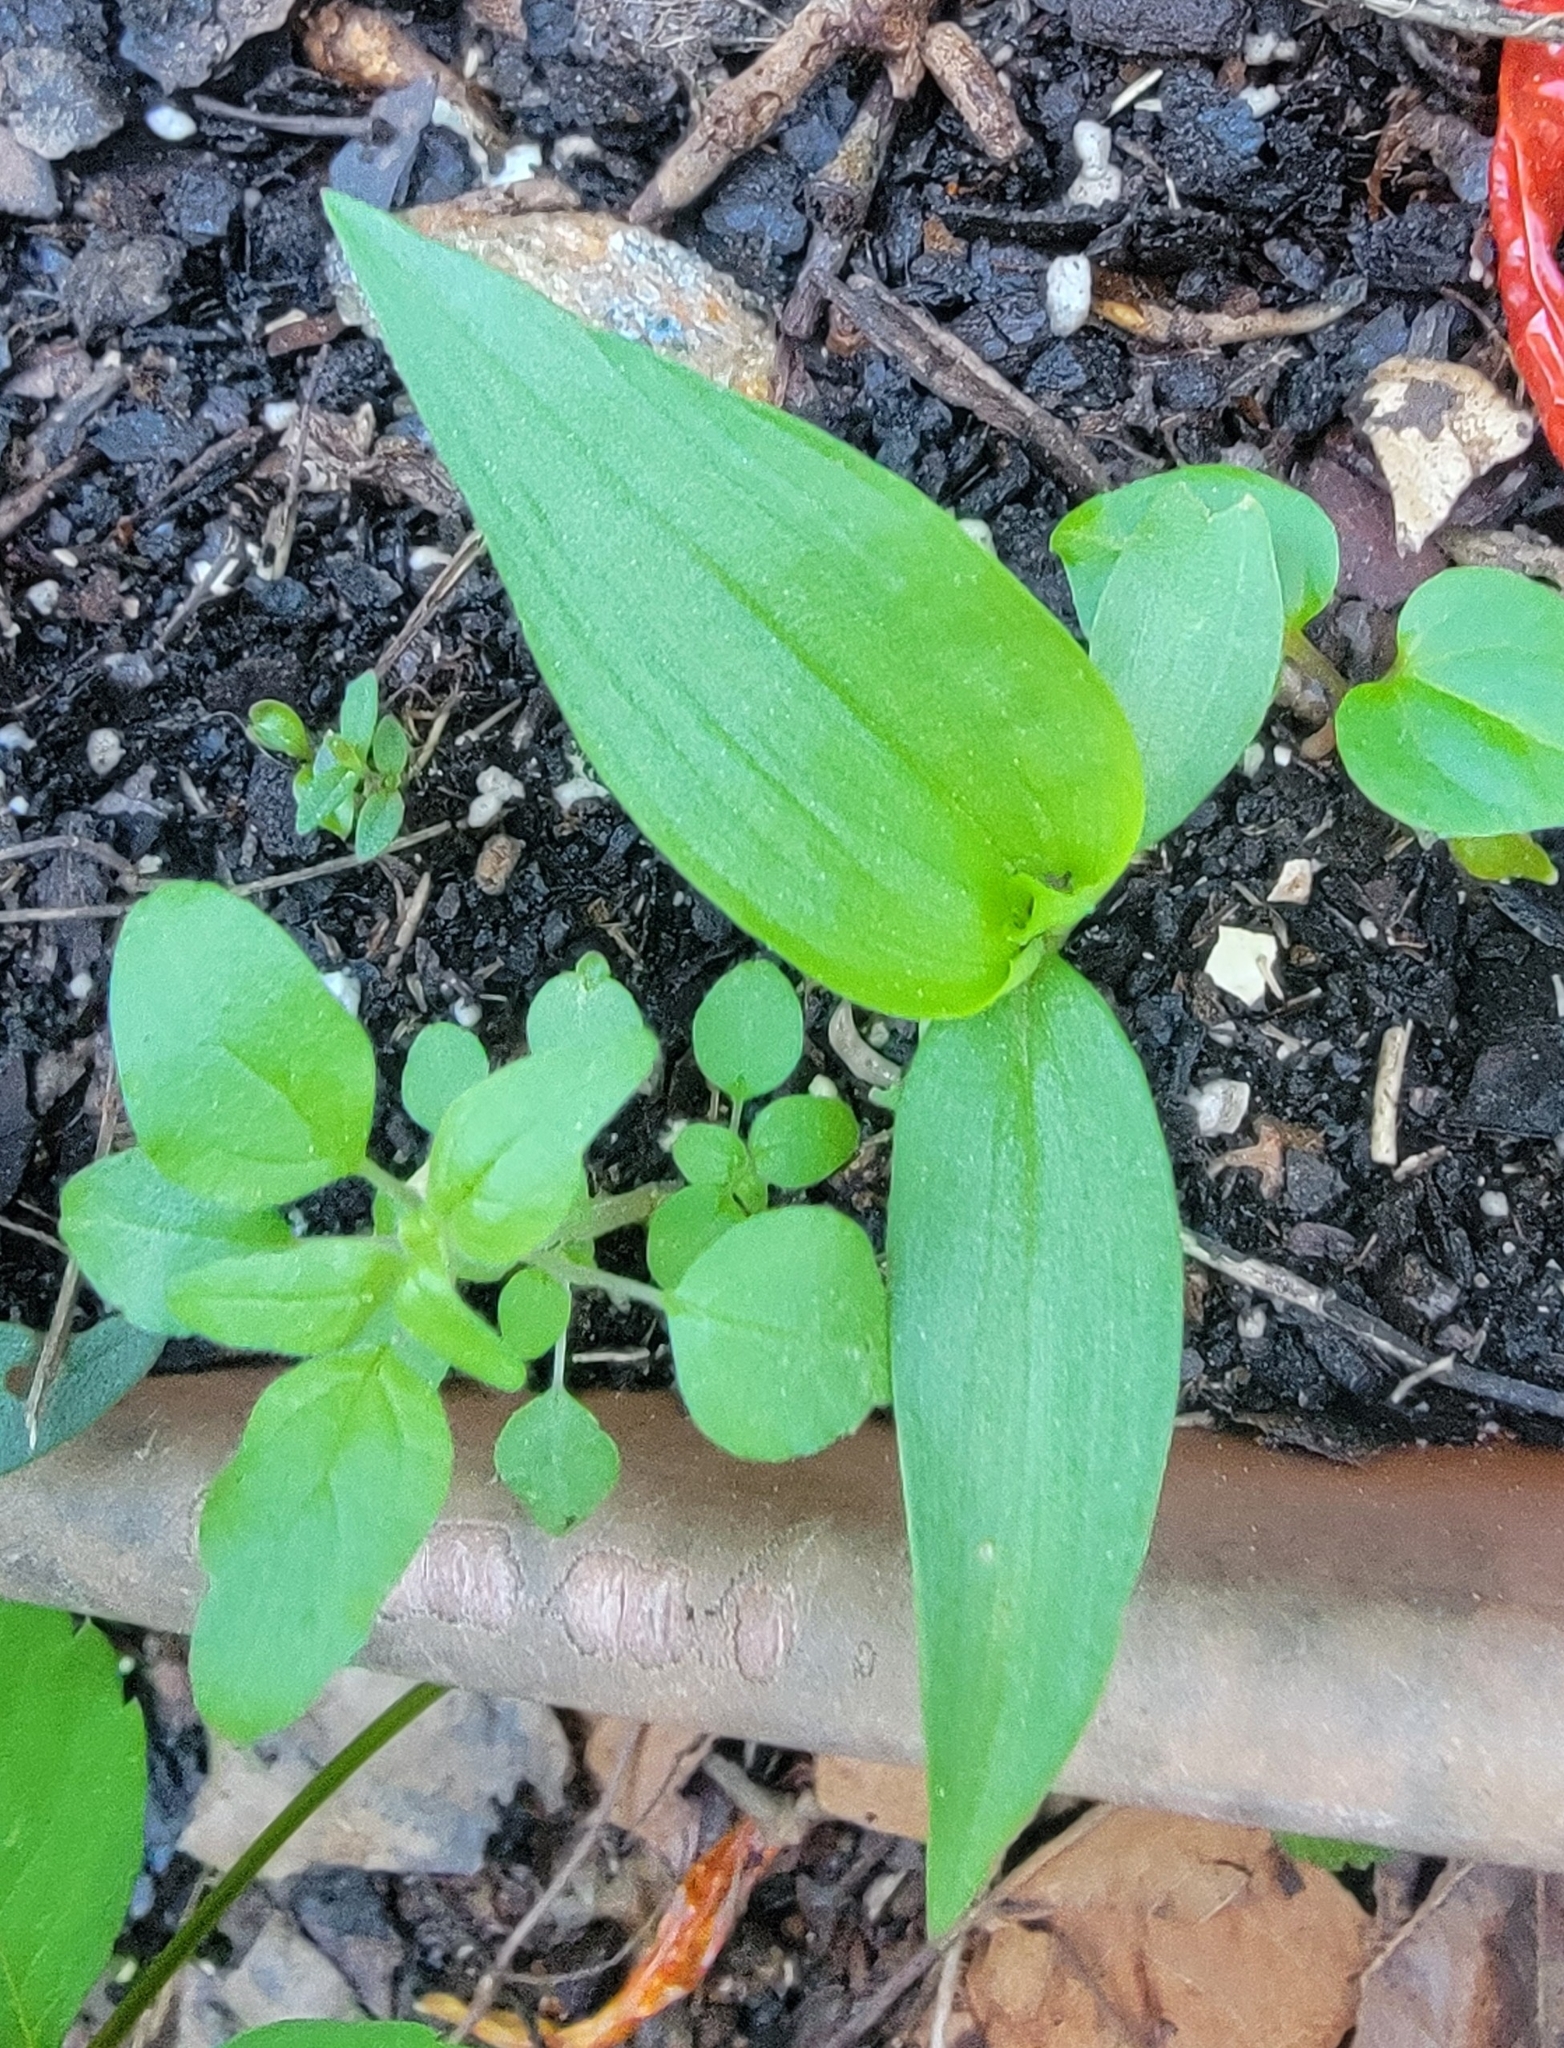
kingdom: Plantae
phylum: Tracheophyta
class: Liliopsida
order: Commelinales
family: Commelinaceae
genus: Commelina
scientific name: Commelina communis
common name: Asiatic dayflower
